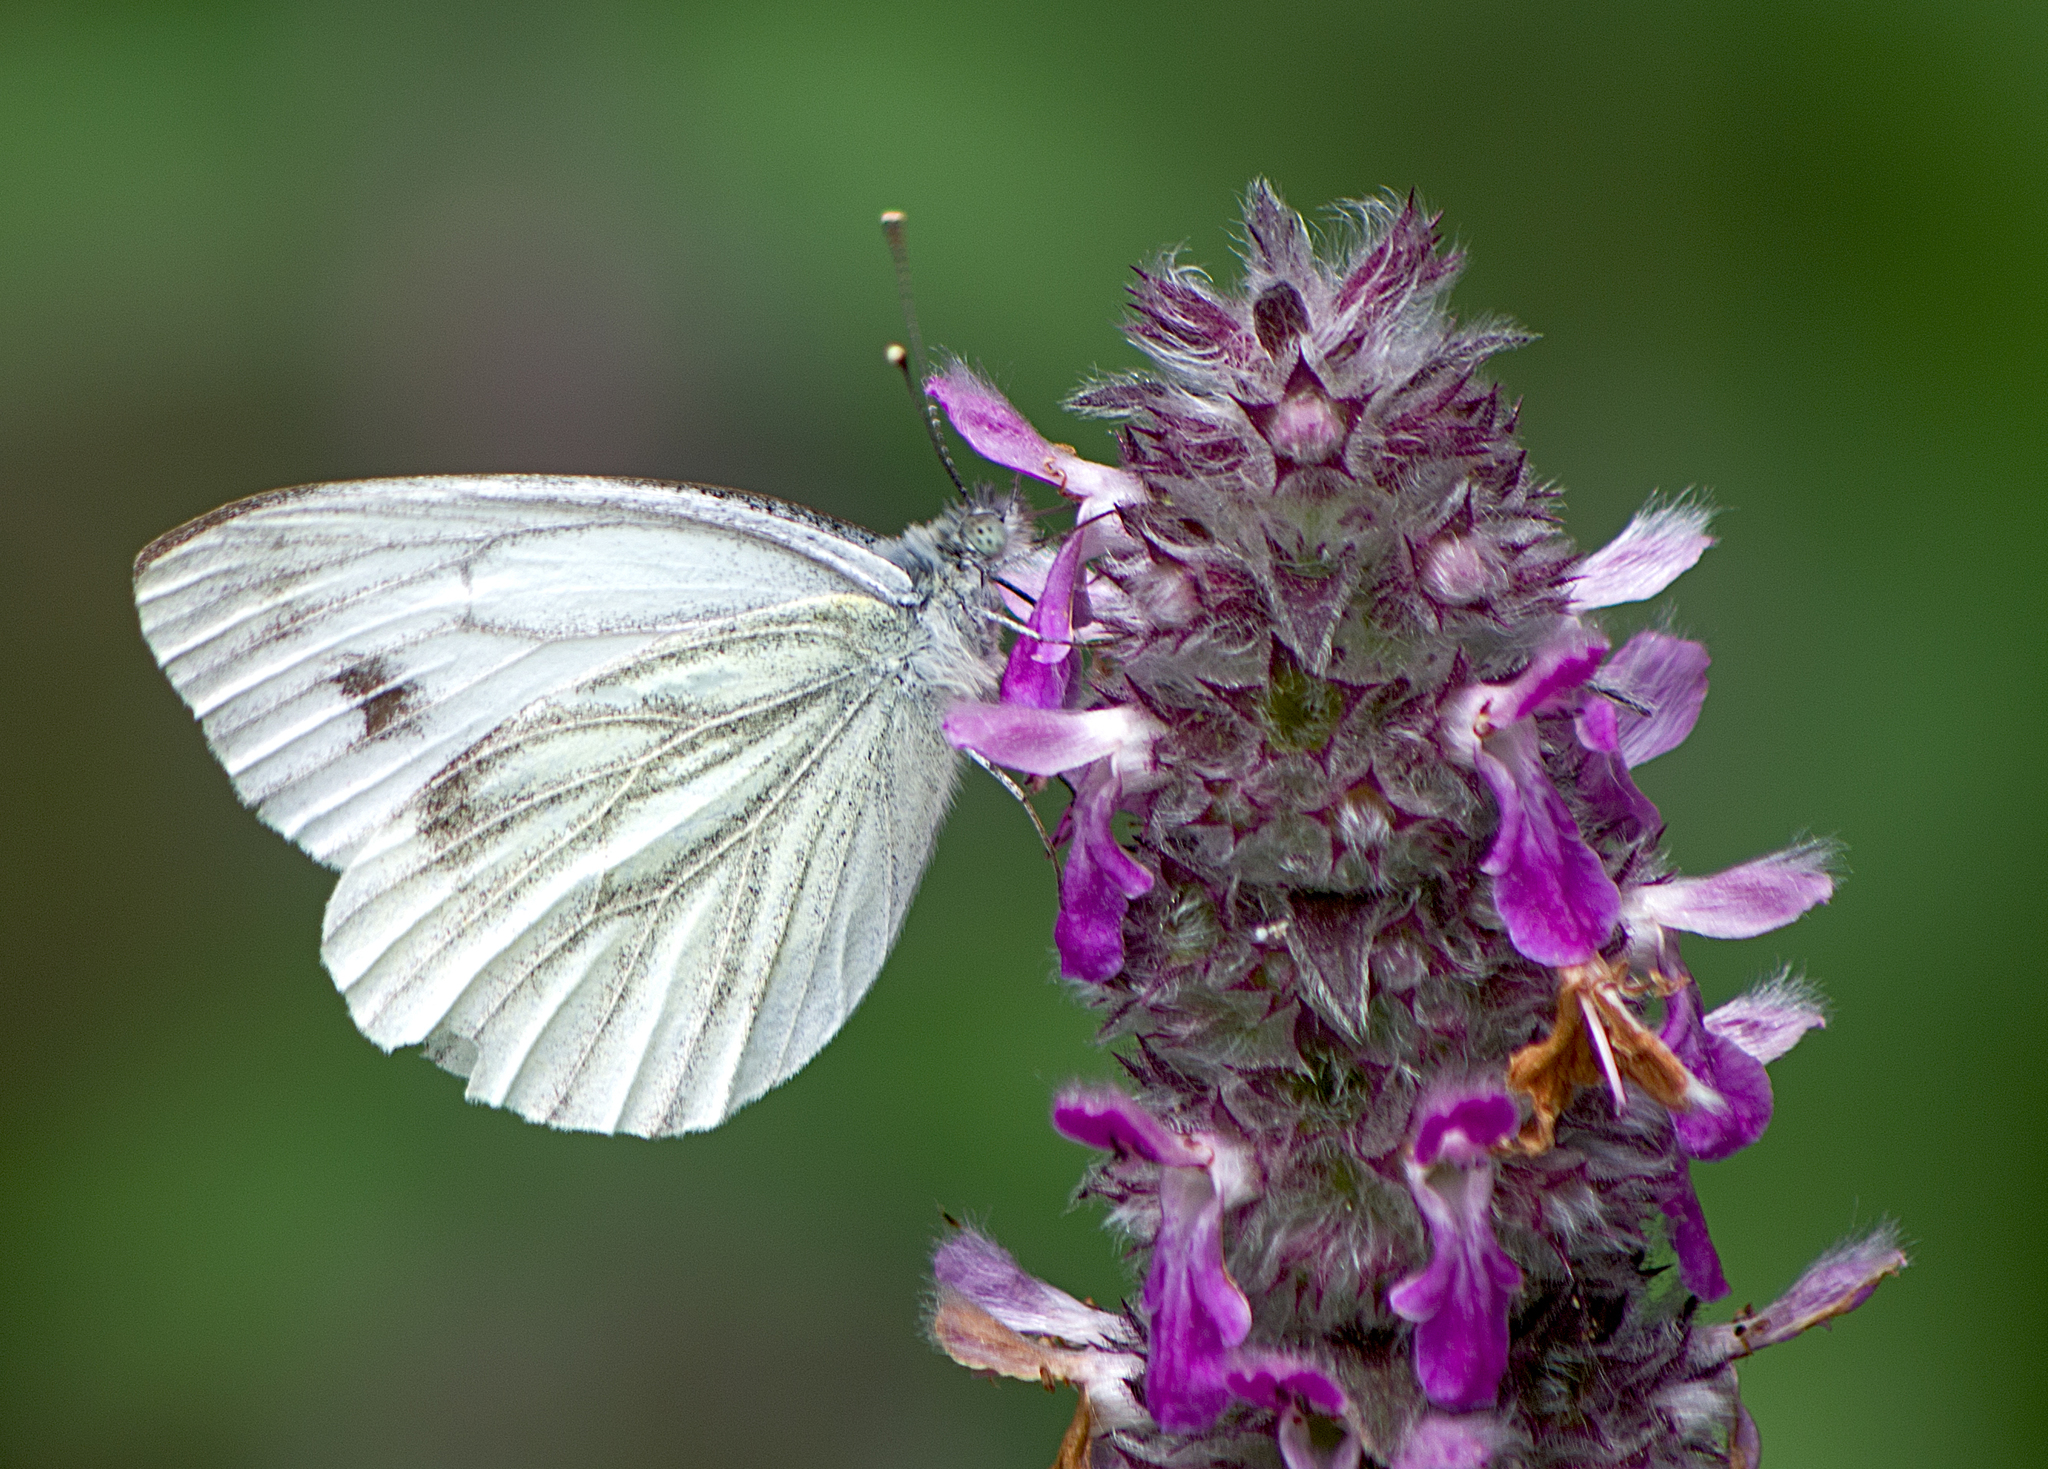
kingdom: Animalia
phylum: Arthropoda
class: Insecta
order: Lepidoptera
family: Pieridae
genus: Pieris
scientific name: Pieris napi
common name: Green-veined white
